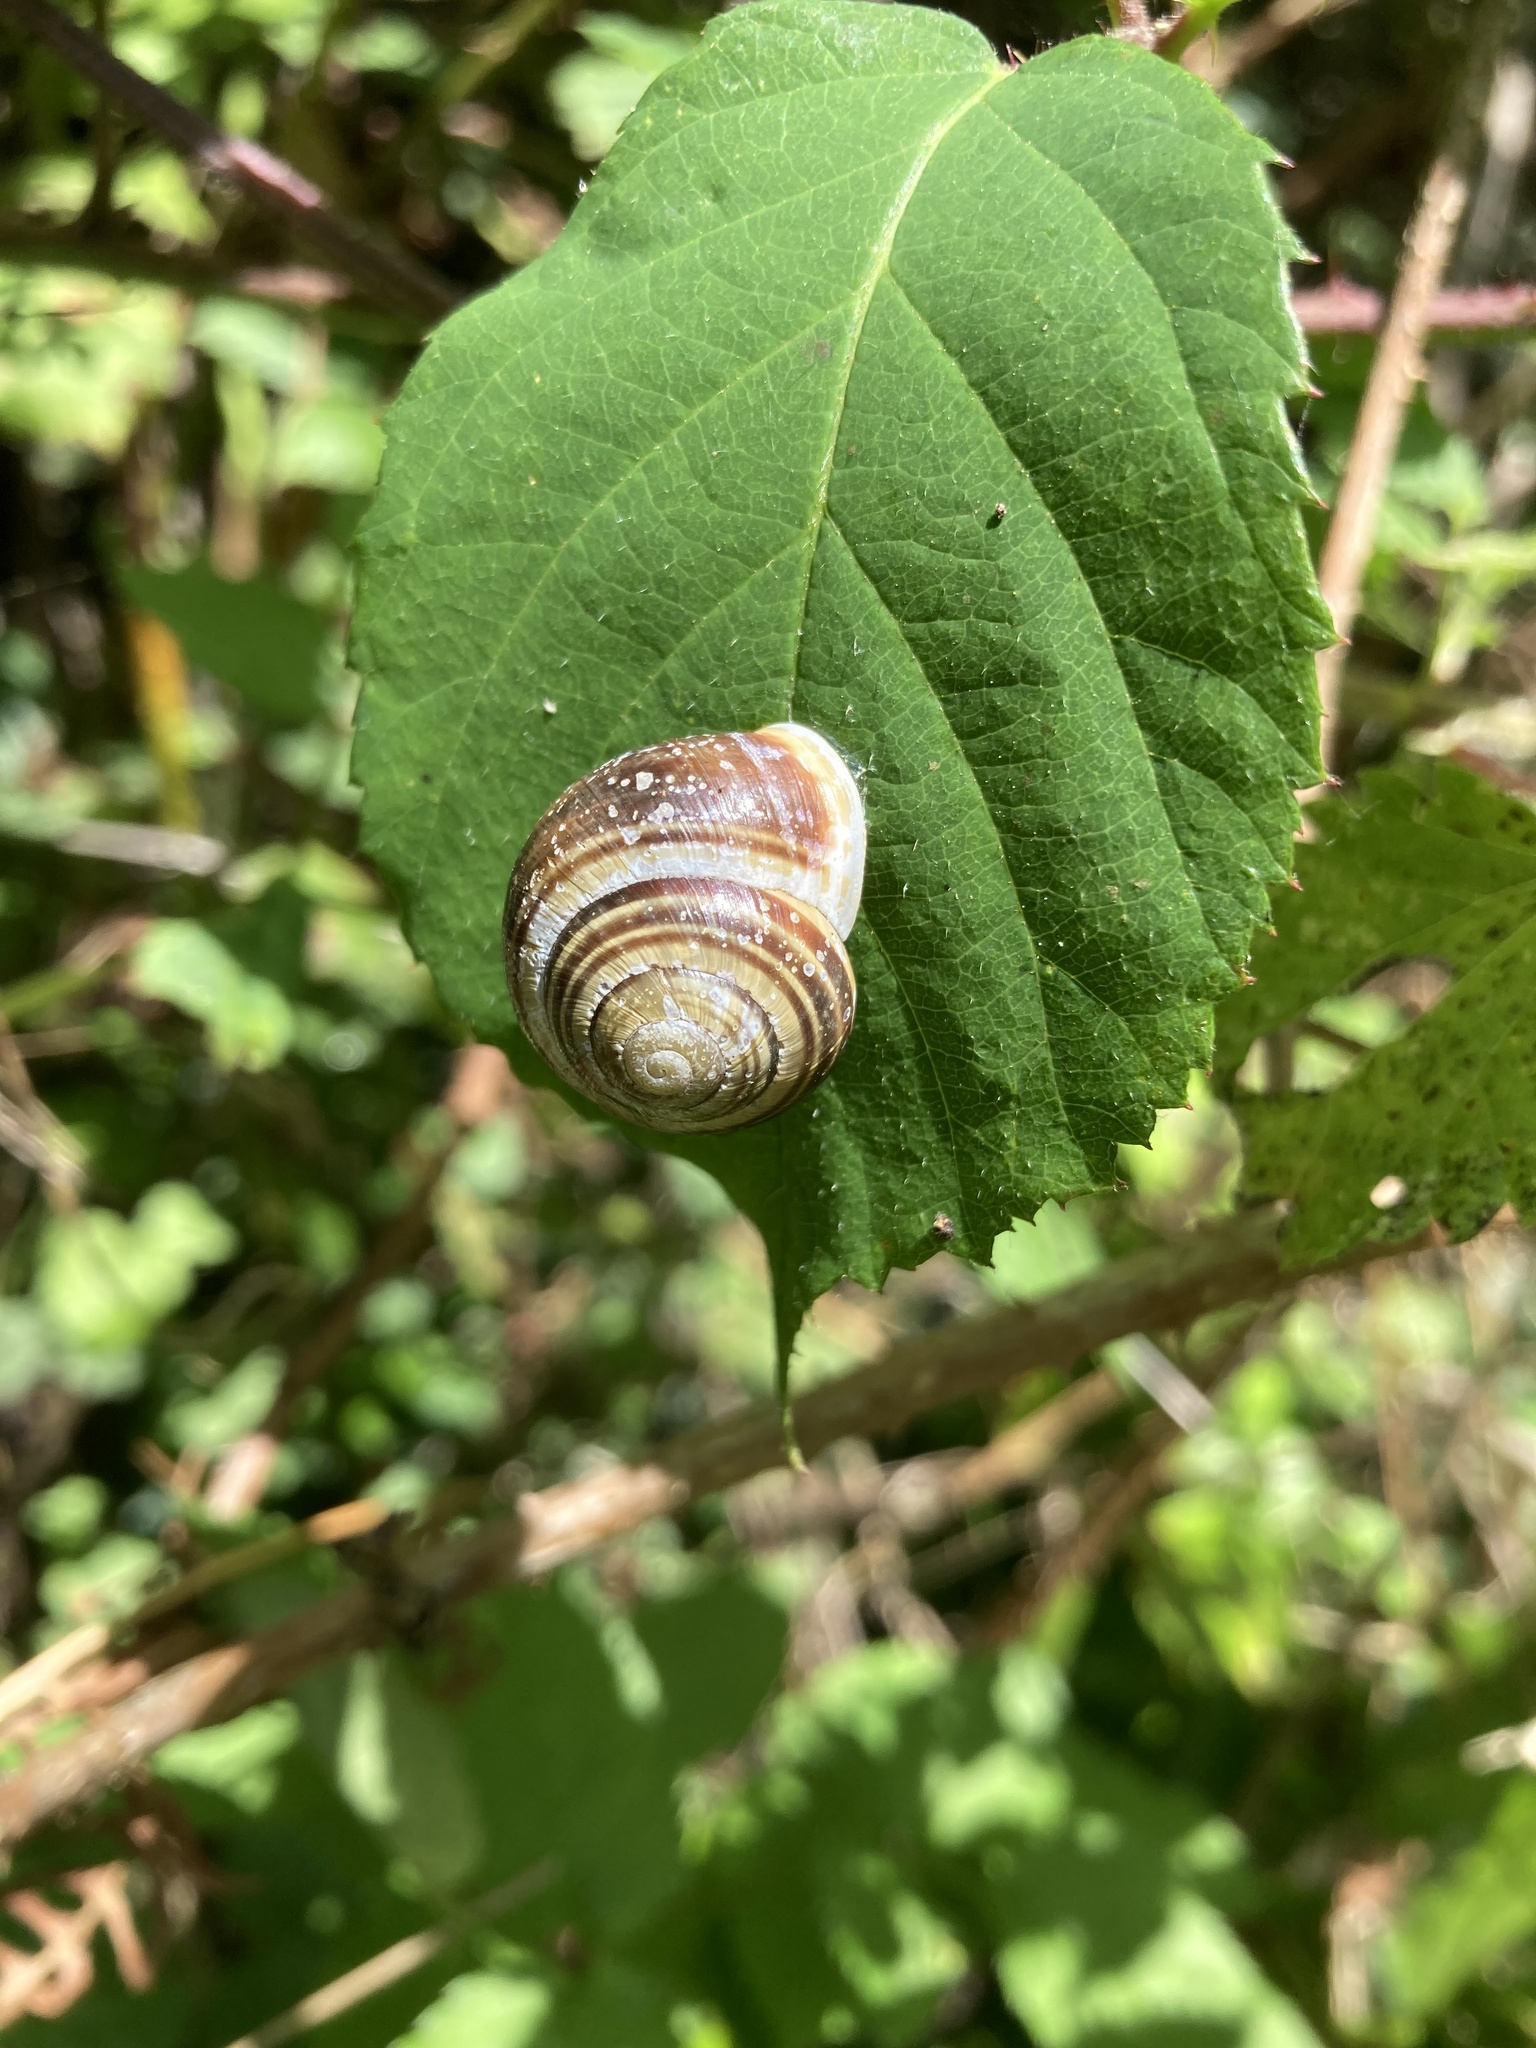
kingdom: Animalia
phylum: Mollusca
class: Gastropoda
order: Stylommatophora
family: Helicidae
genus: Cepaea
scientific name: Cepaea hortensis
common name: White-lip gardensnail
